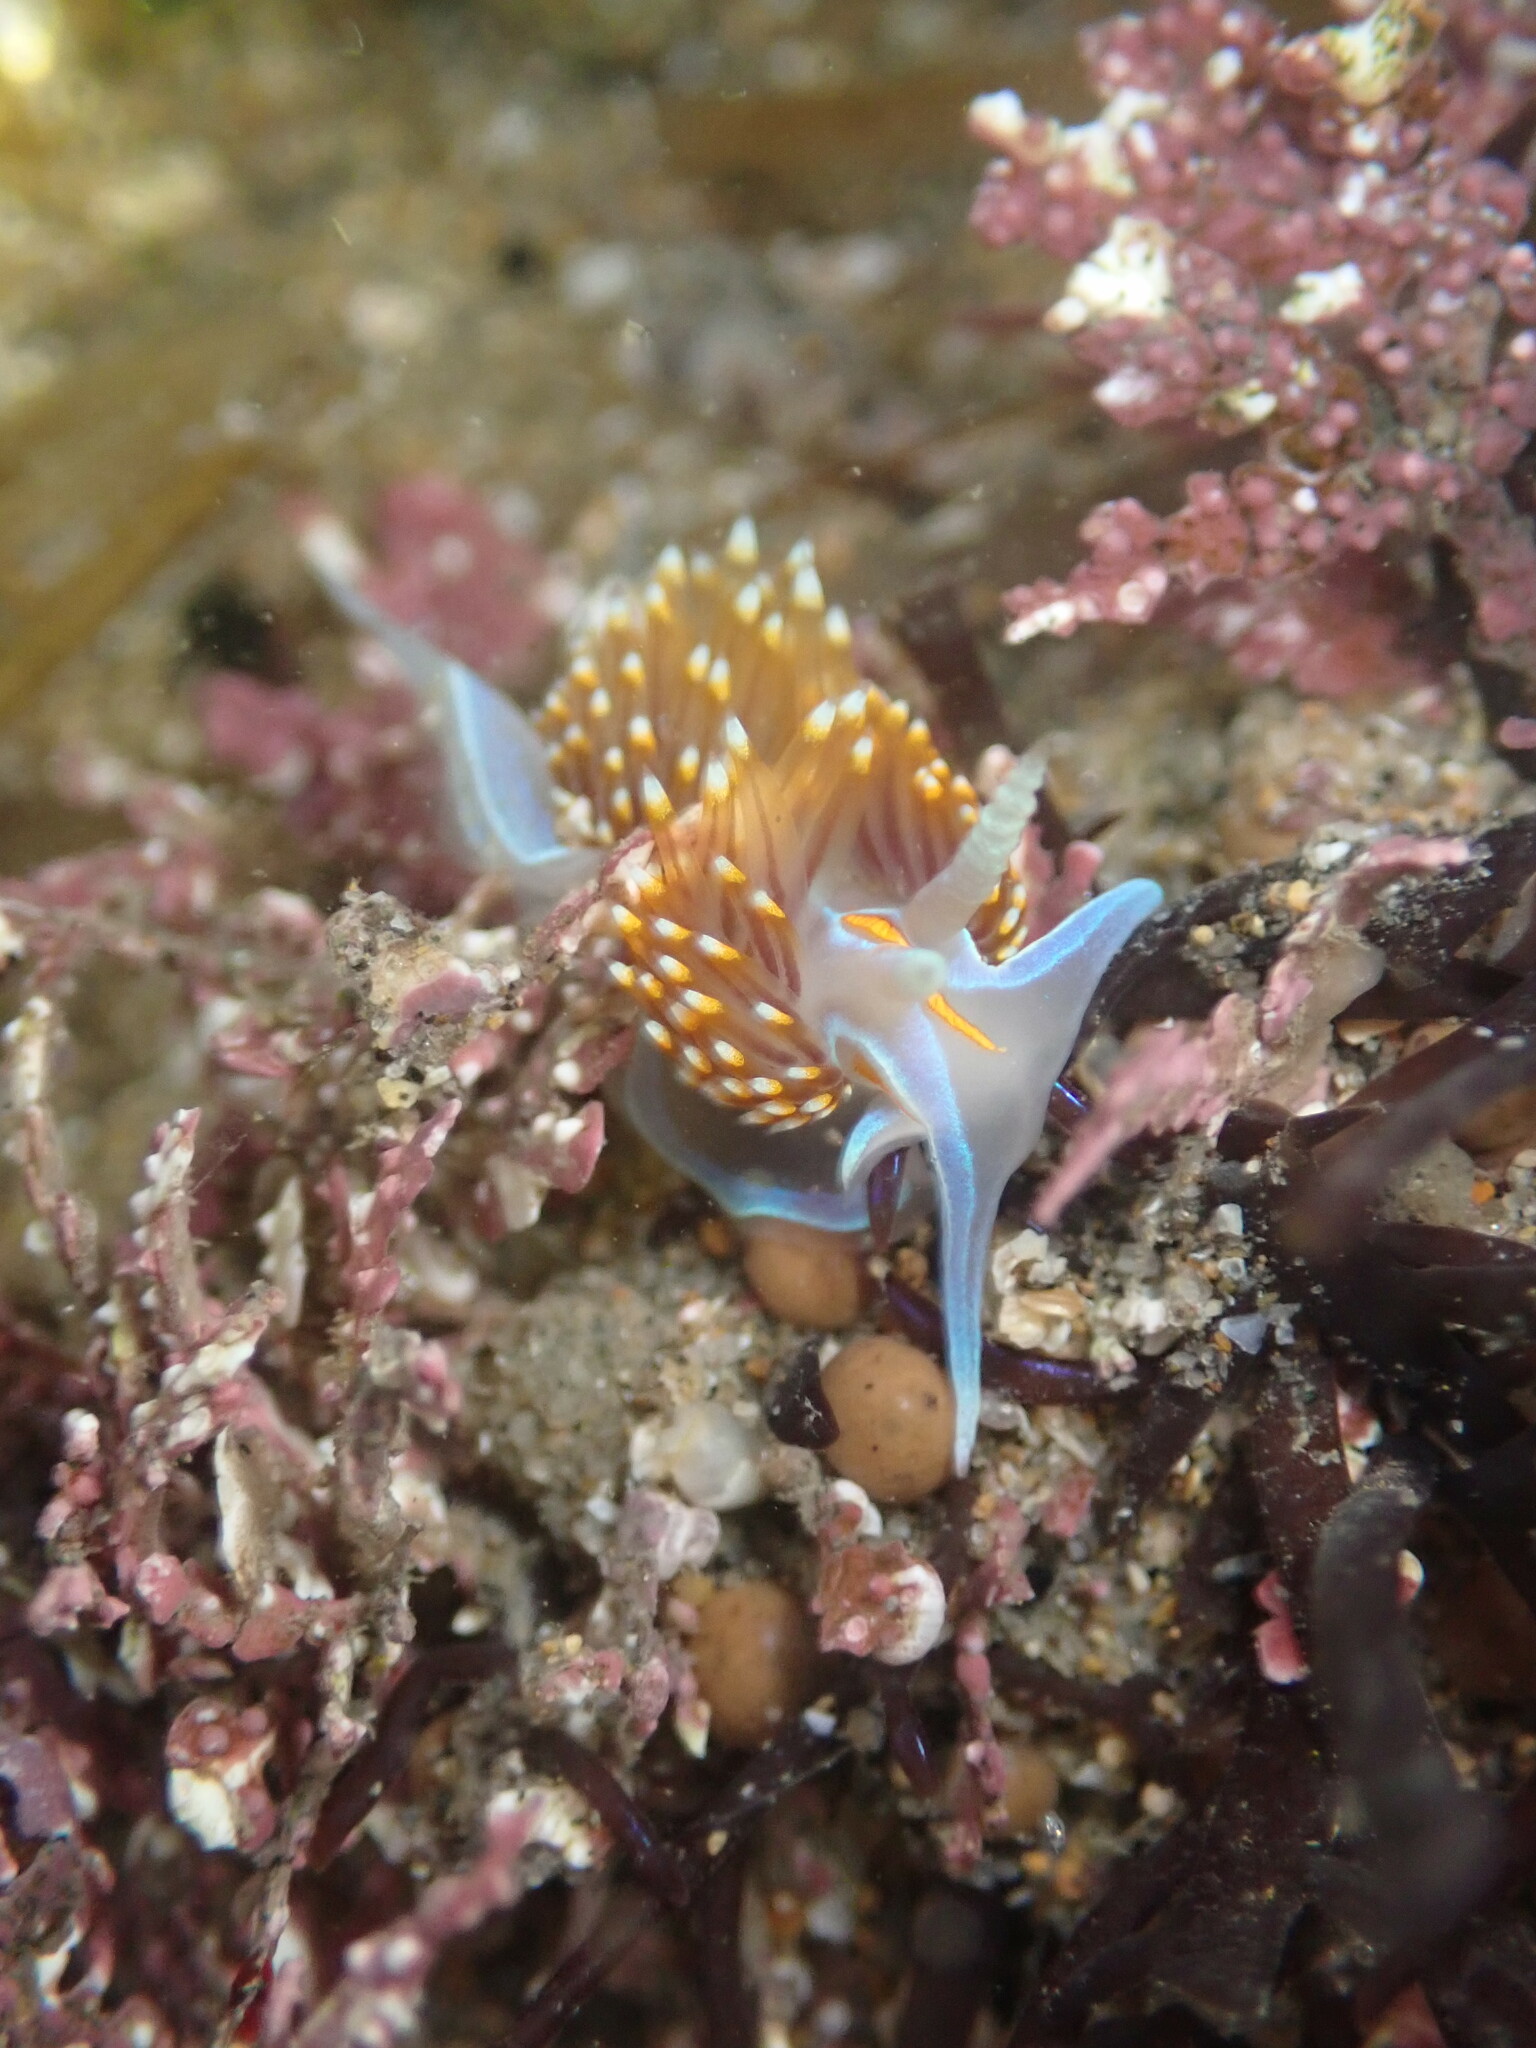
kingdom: Animalia
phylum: Mollusca
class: Gastropoda
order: Nudibranchia
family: Myrrhinidae
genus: Hermissenda
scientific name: Hermissenda opalescens
